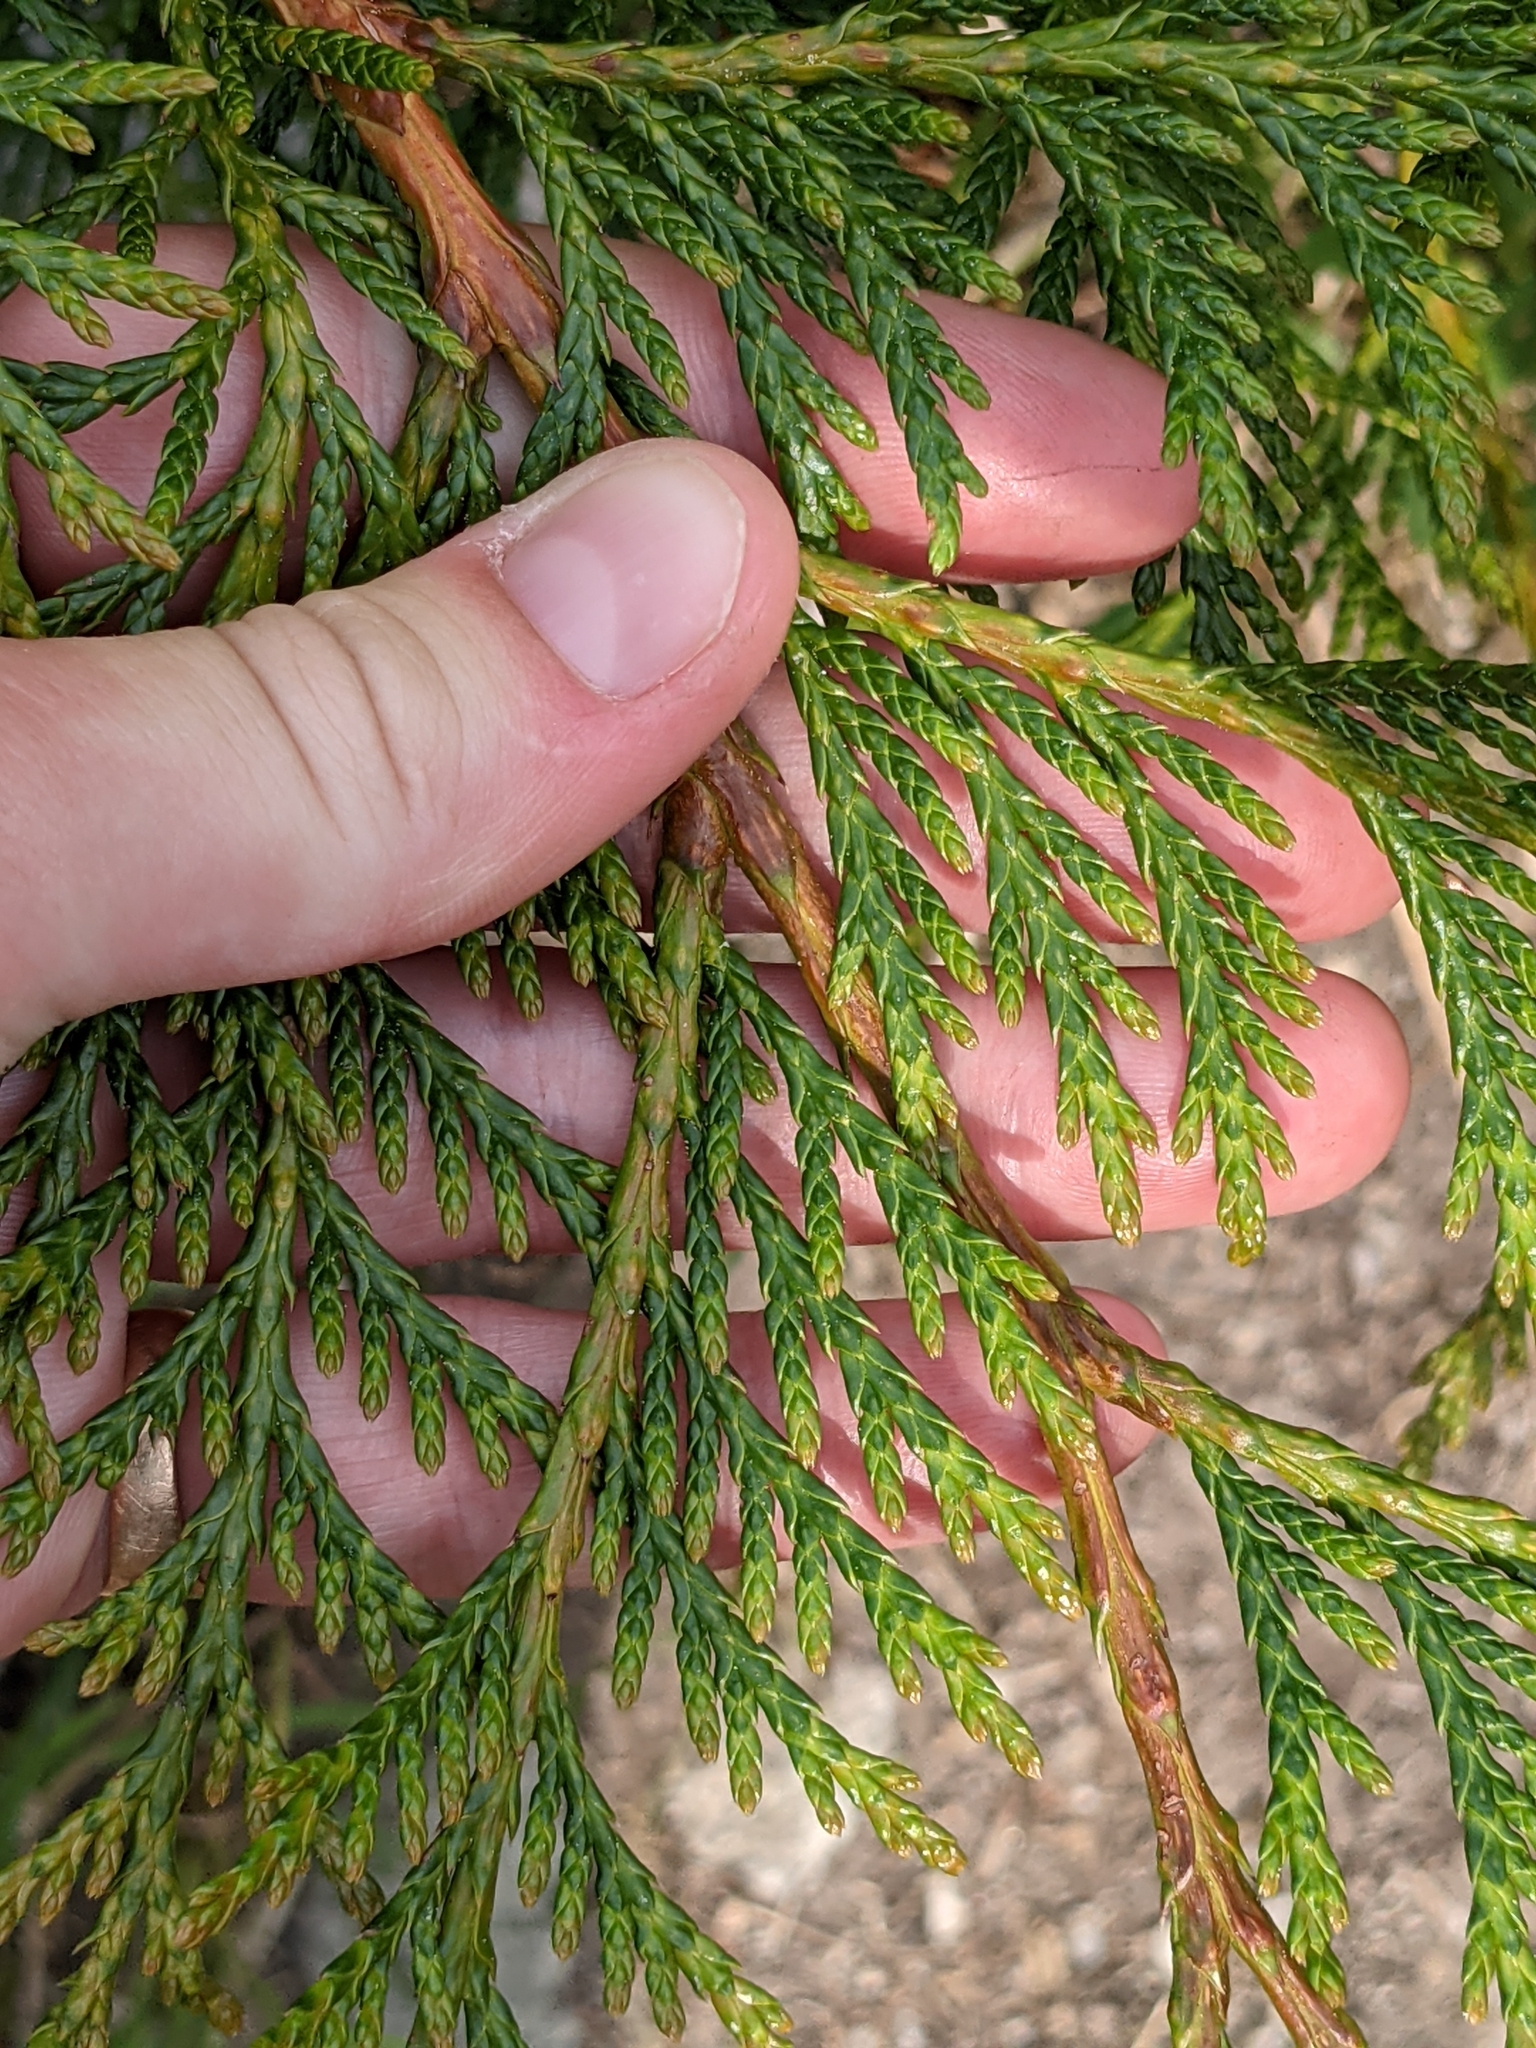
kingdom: Plantae
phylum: Tracheophyta
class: Pinopsida
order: Pinales
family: Cupressaceae
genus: Thuja
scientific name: Thuja plicata
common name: Western red-cedar
